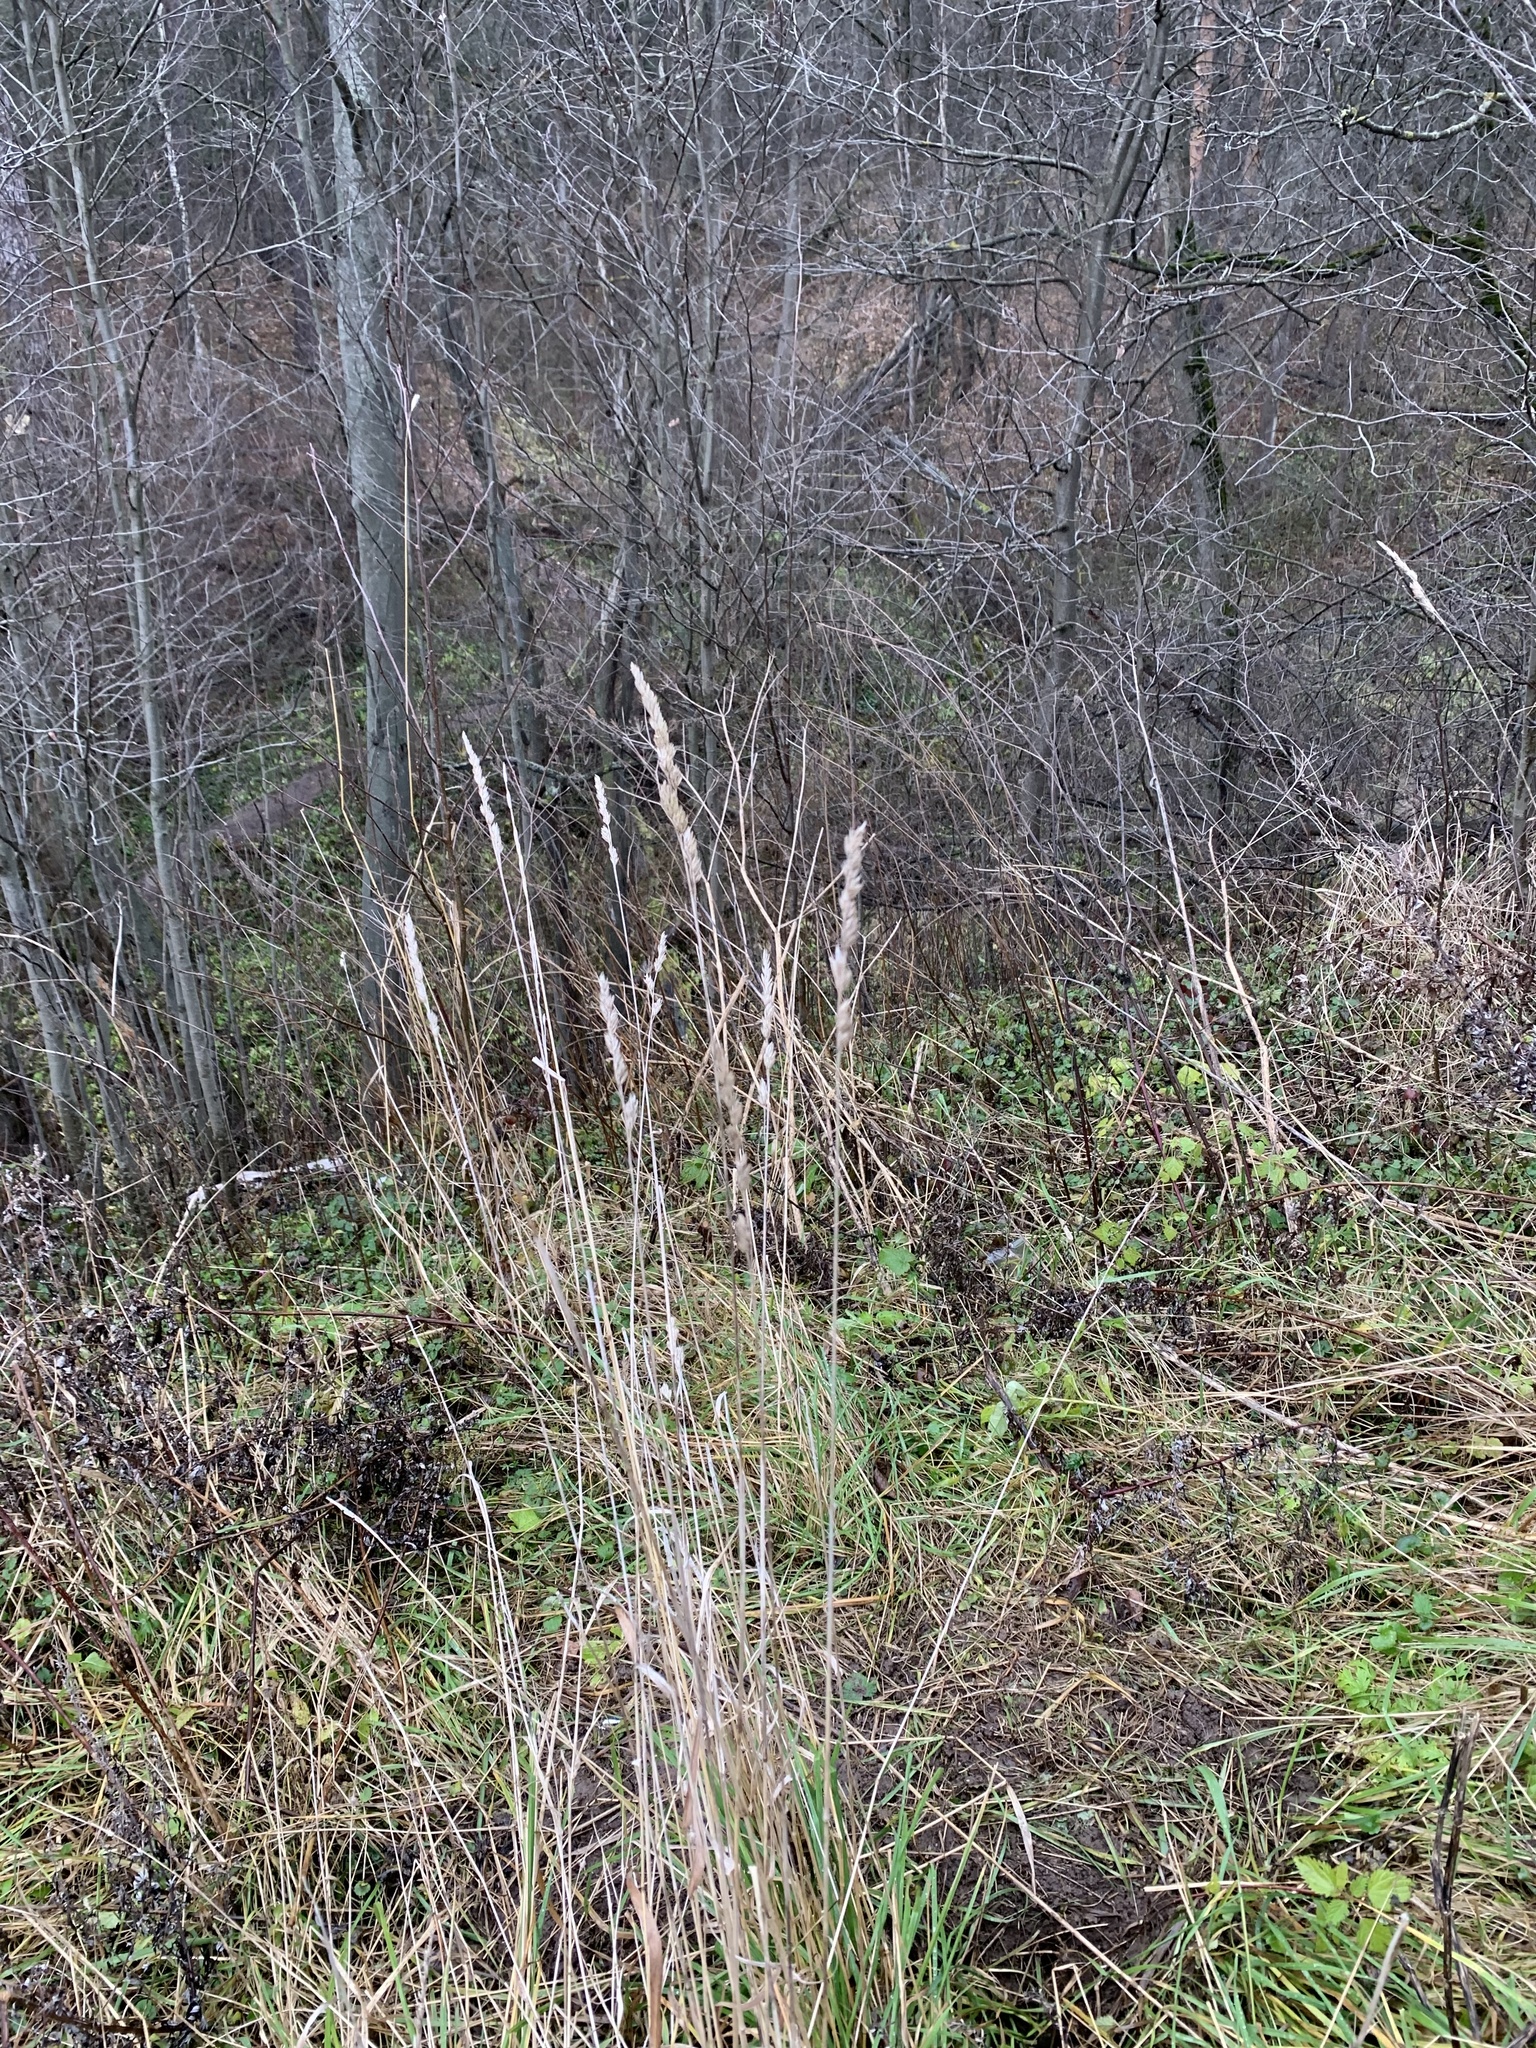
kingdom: Plantae
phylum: Tracheophyta
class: Liliopsida
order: Poales
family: Poaceae
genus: Dactylis
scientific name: Dactylis glomerata
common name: Orchardgrass
